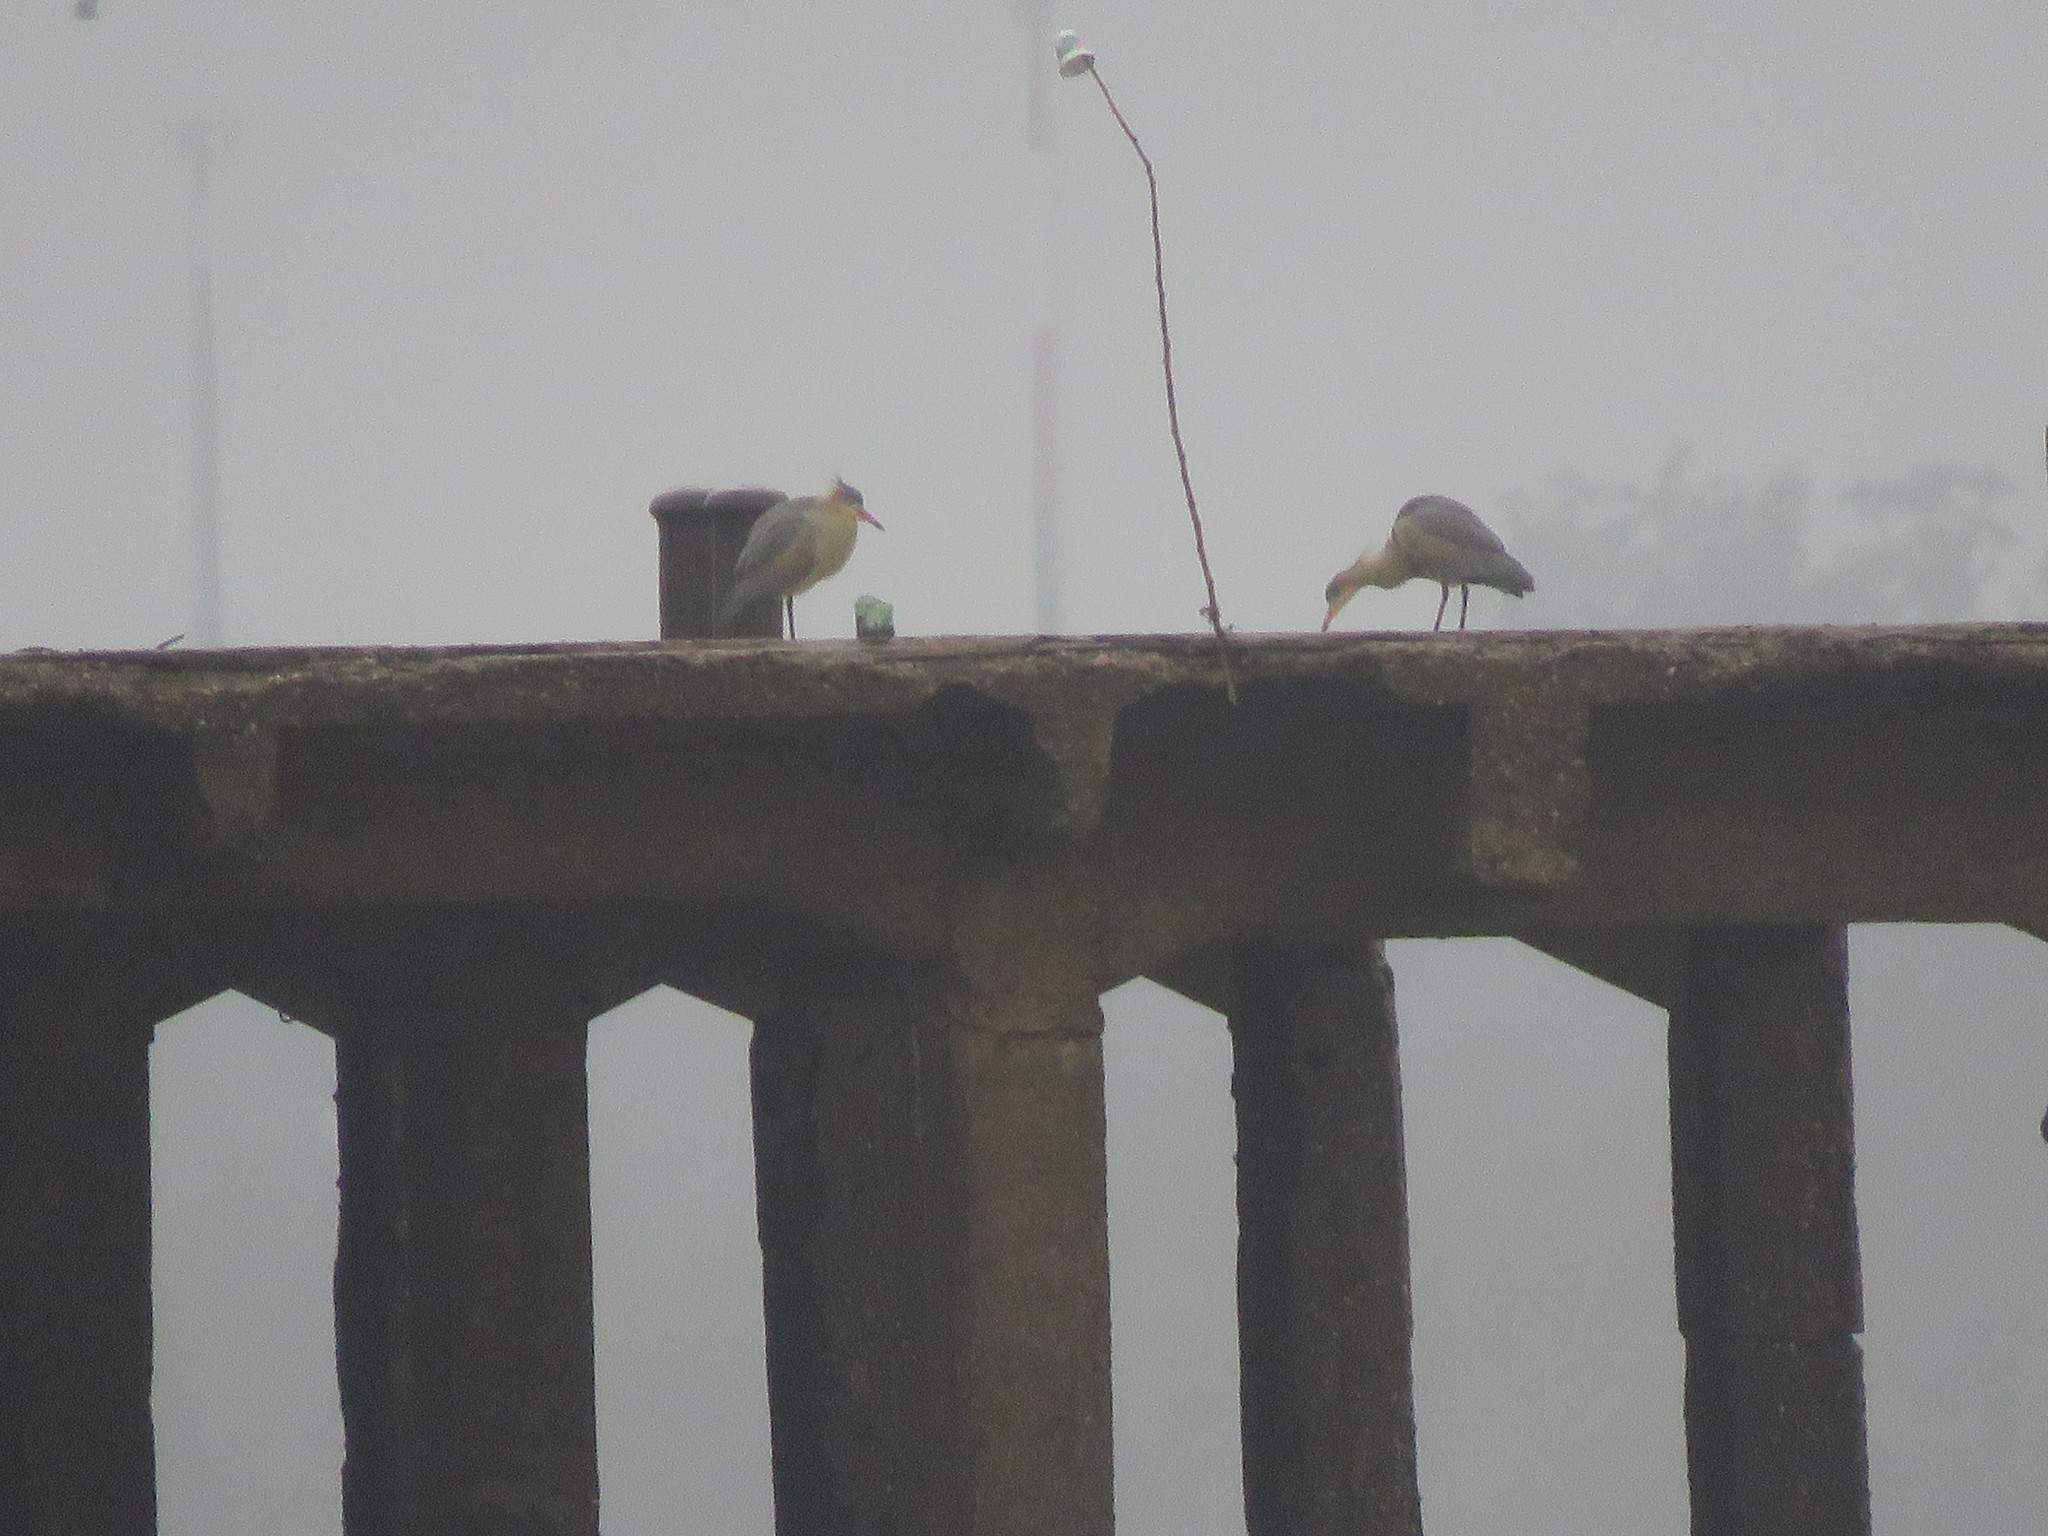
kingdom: Animalia
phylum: Chordata
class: Aves
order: Pelecaniformes
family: Ardeidae
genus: Syrigma
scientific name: Syrigma sibilatrix
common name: Whistling heron
